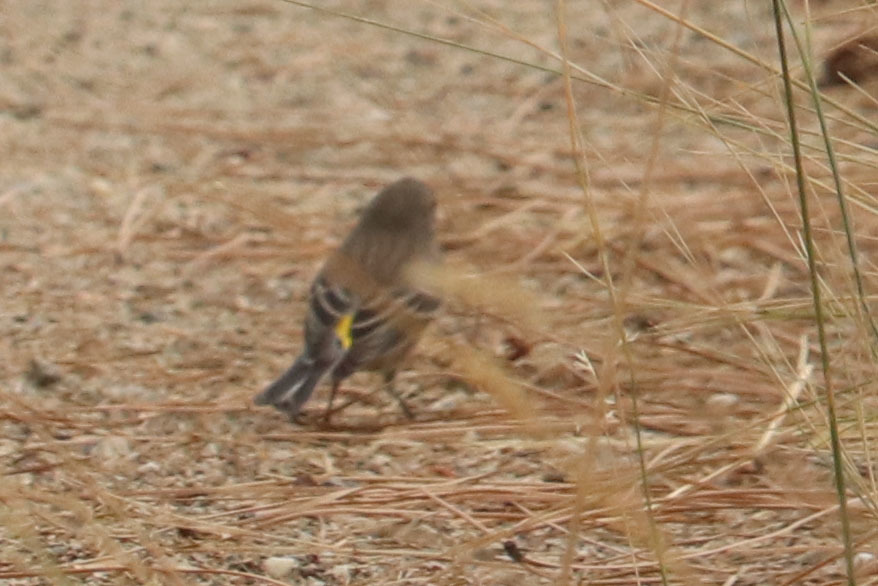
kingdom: Animalia
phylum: Chordata
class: Aves
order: Passeriformes
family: Parulidae
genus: Setophaga
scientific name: Setophaga coronata
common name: Myrtle warbler
